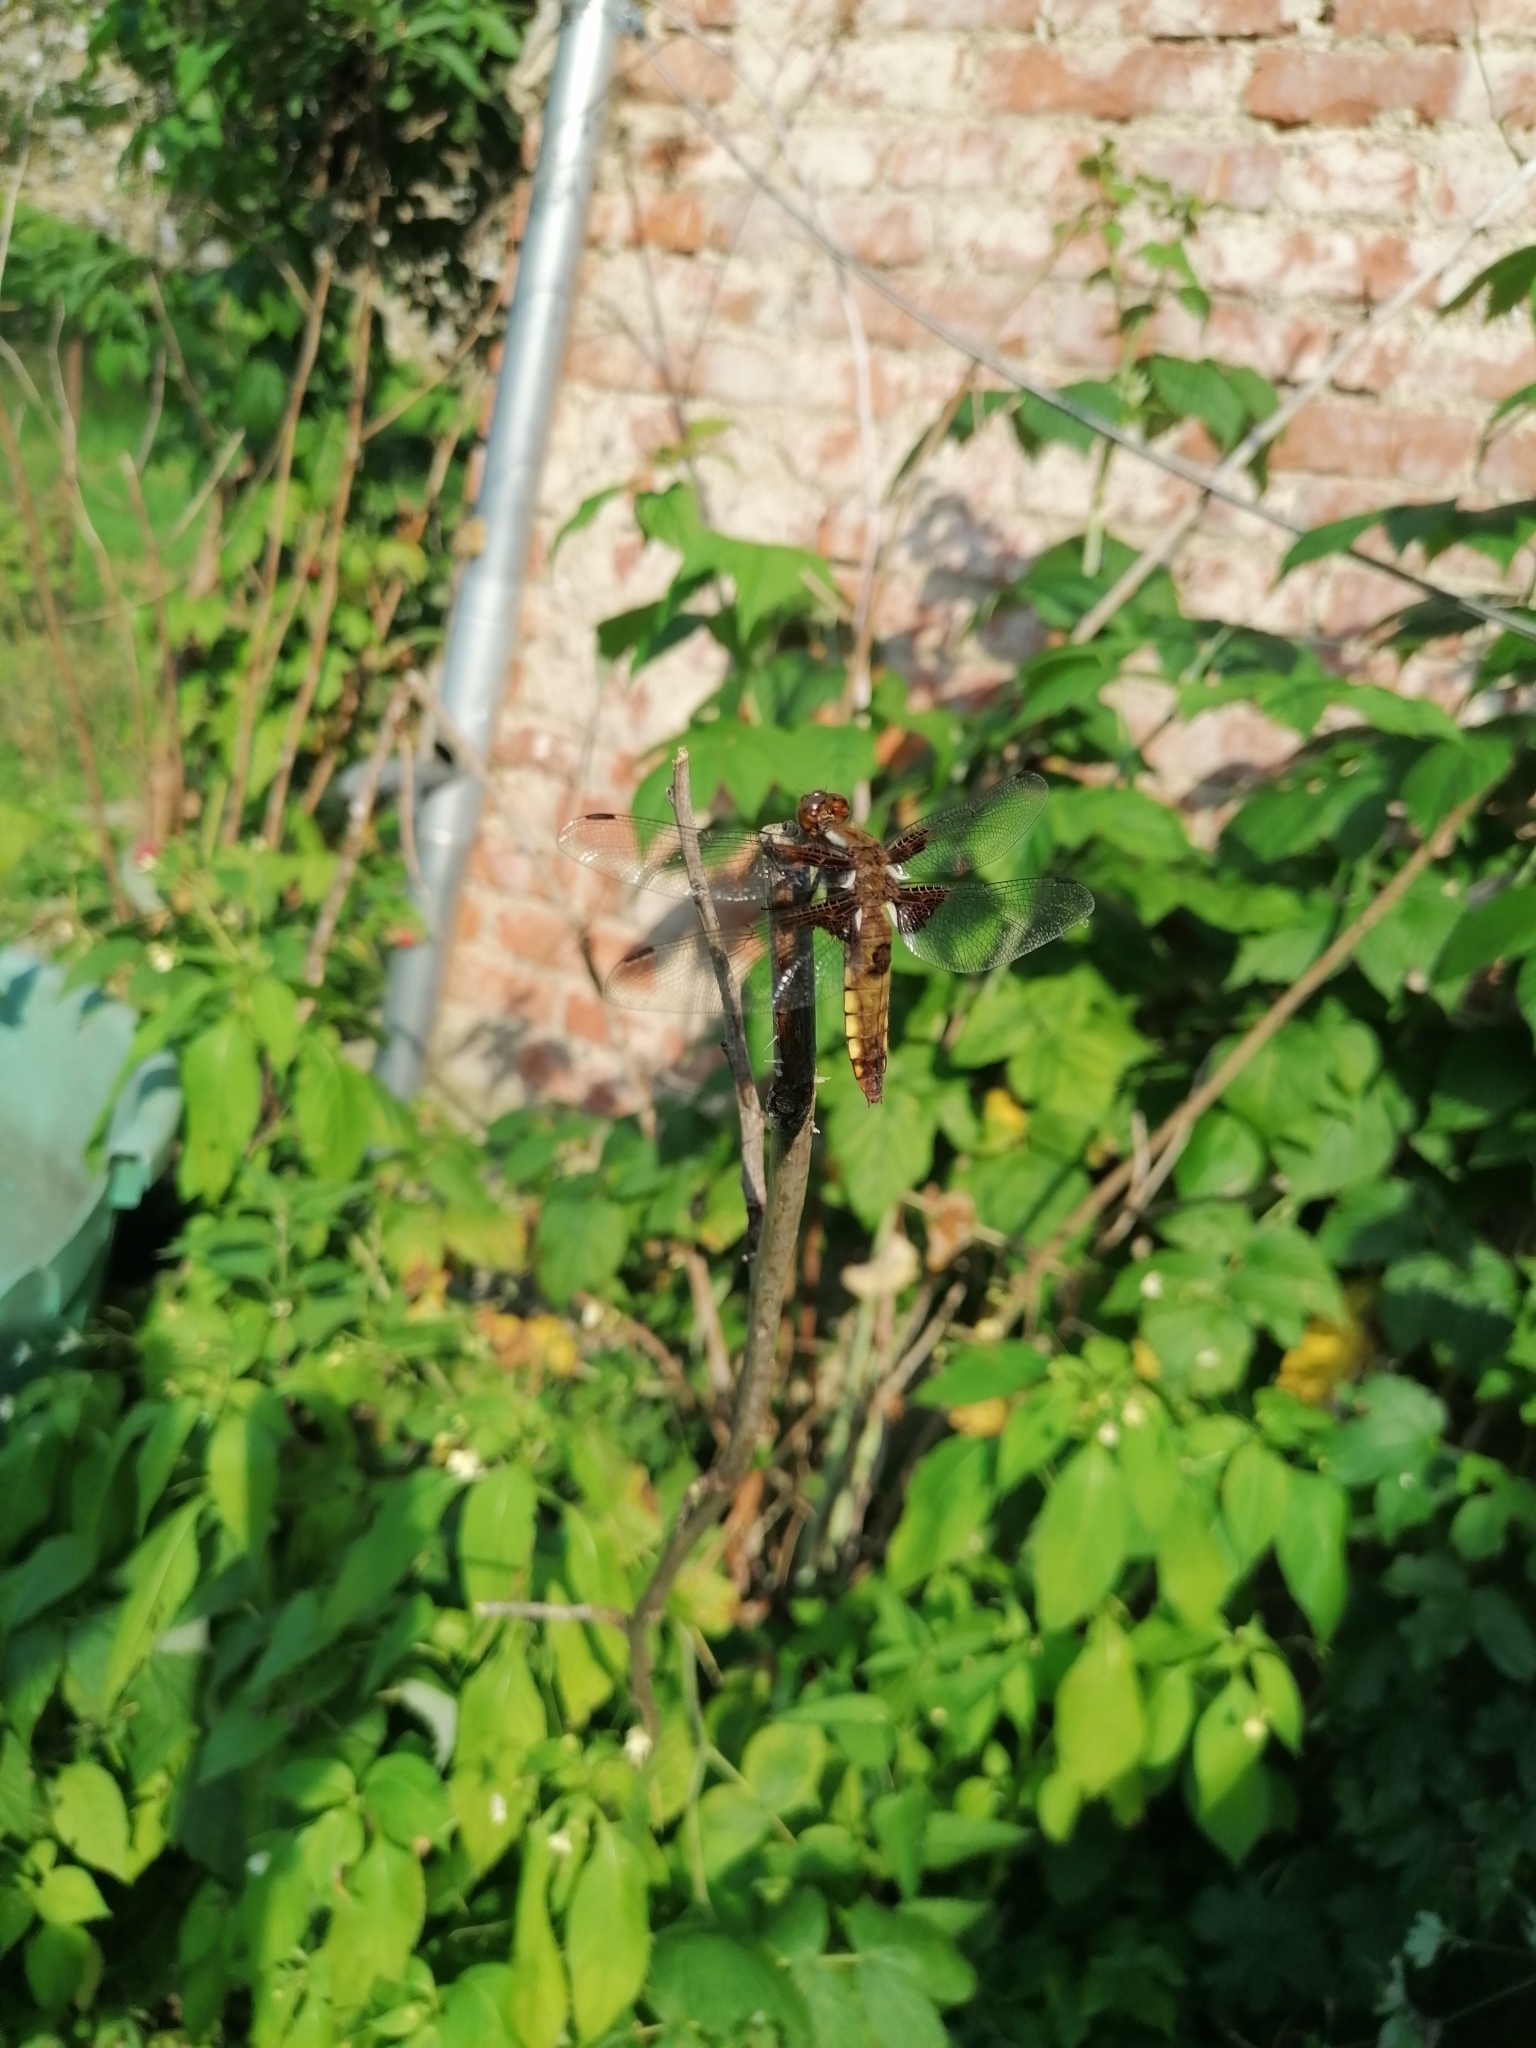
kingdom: Animalia
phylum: Arthropoda
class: Insecta
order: Odonata
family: Libellulidae
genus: Libellula
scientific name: Libellula depressa
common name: Broad-bodied chaser
